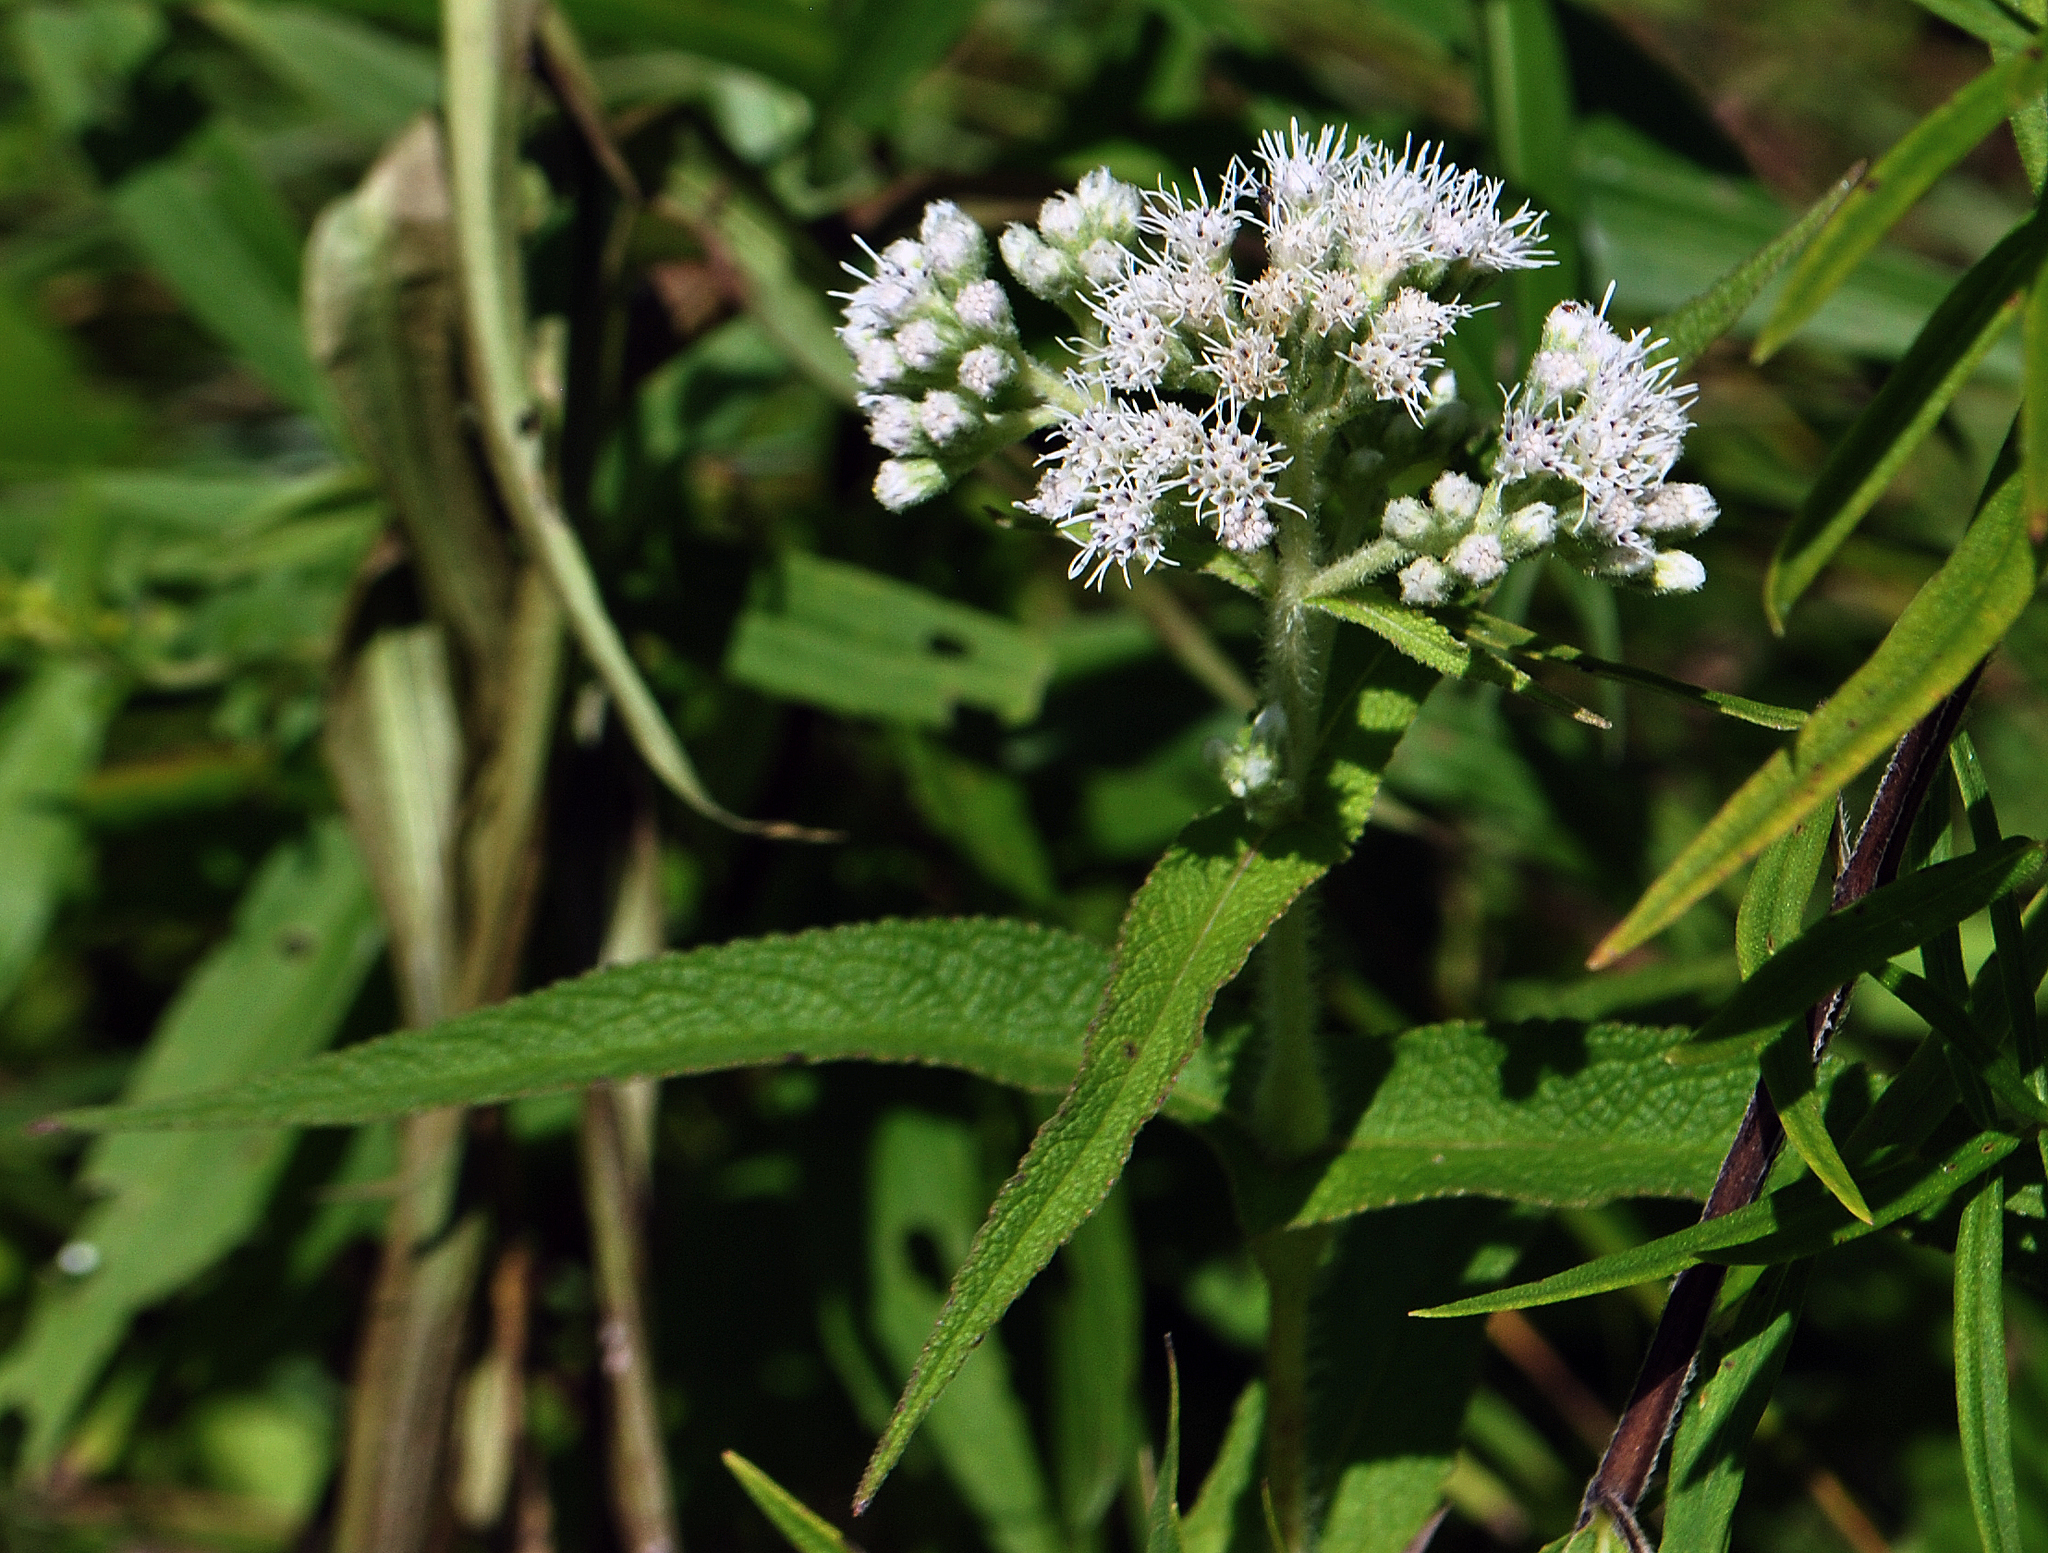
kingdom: Plantae
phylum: Tracheophyta
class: Magnoliopsida
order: Asterales
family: Asteraceae
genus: Eupatorium
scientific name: Eupatorium perfoliatum
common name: Boneset
